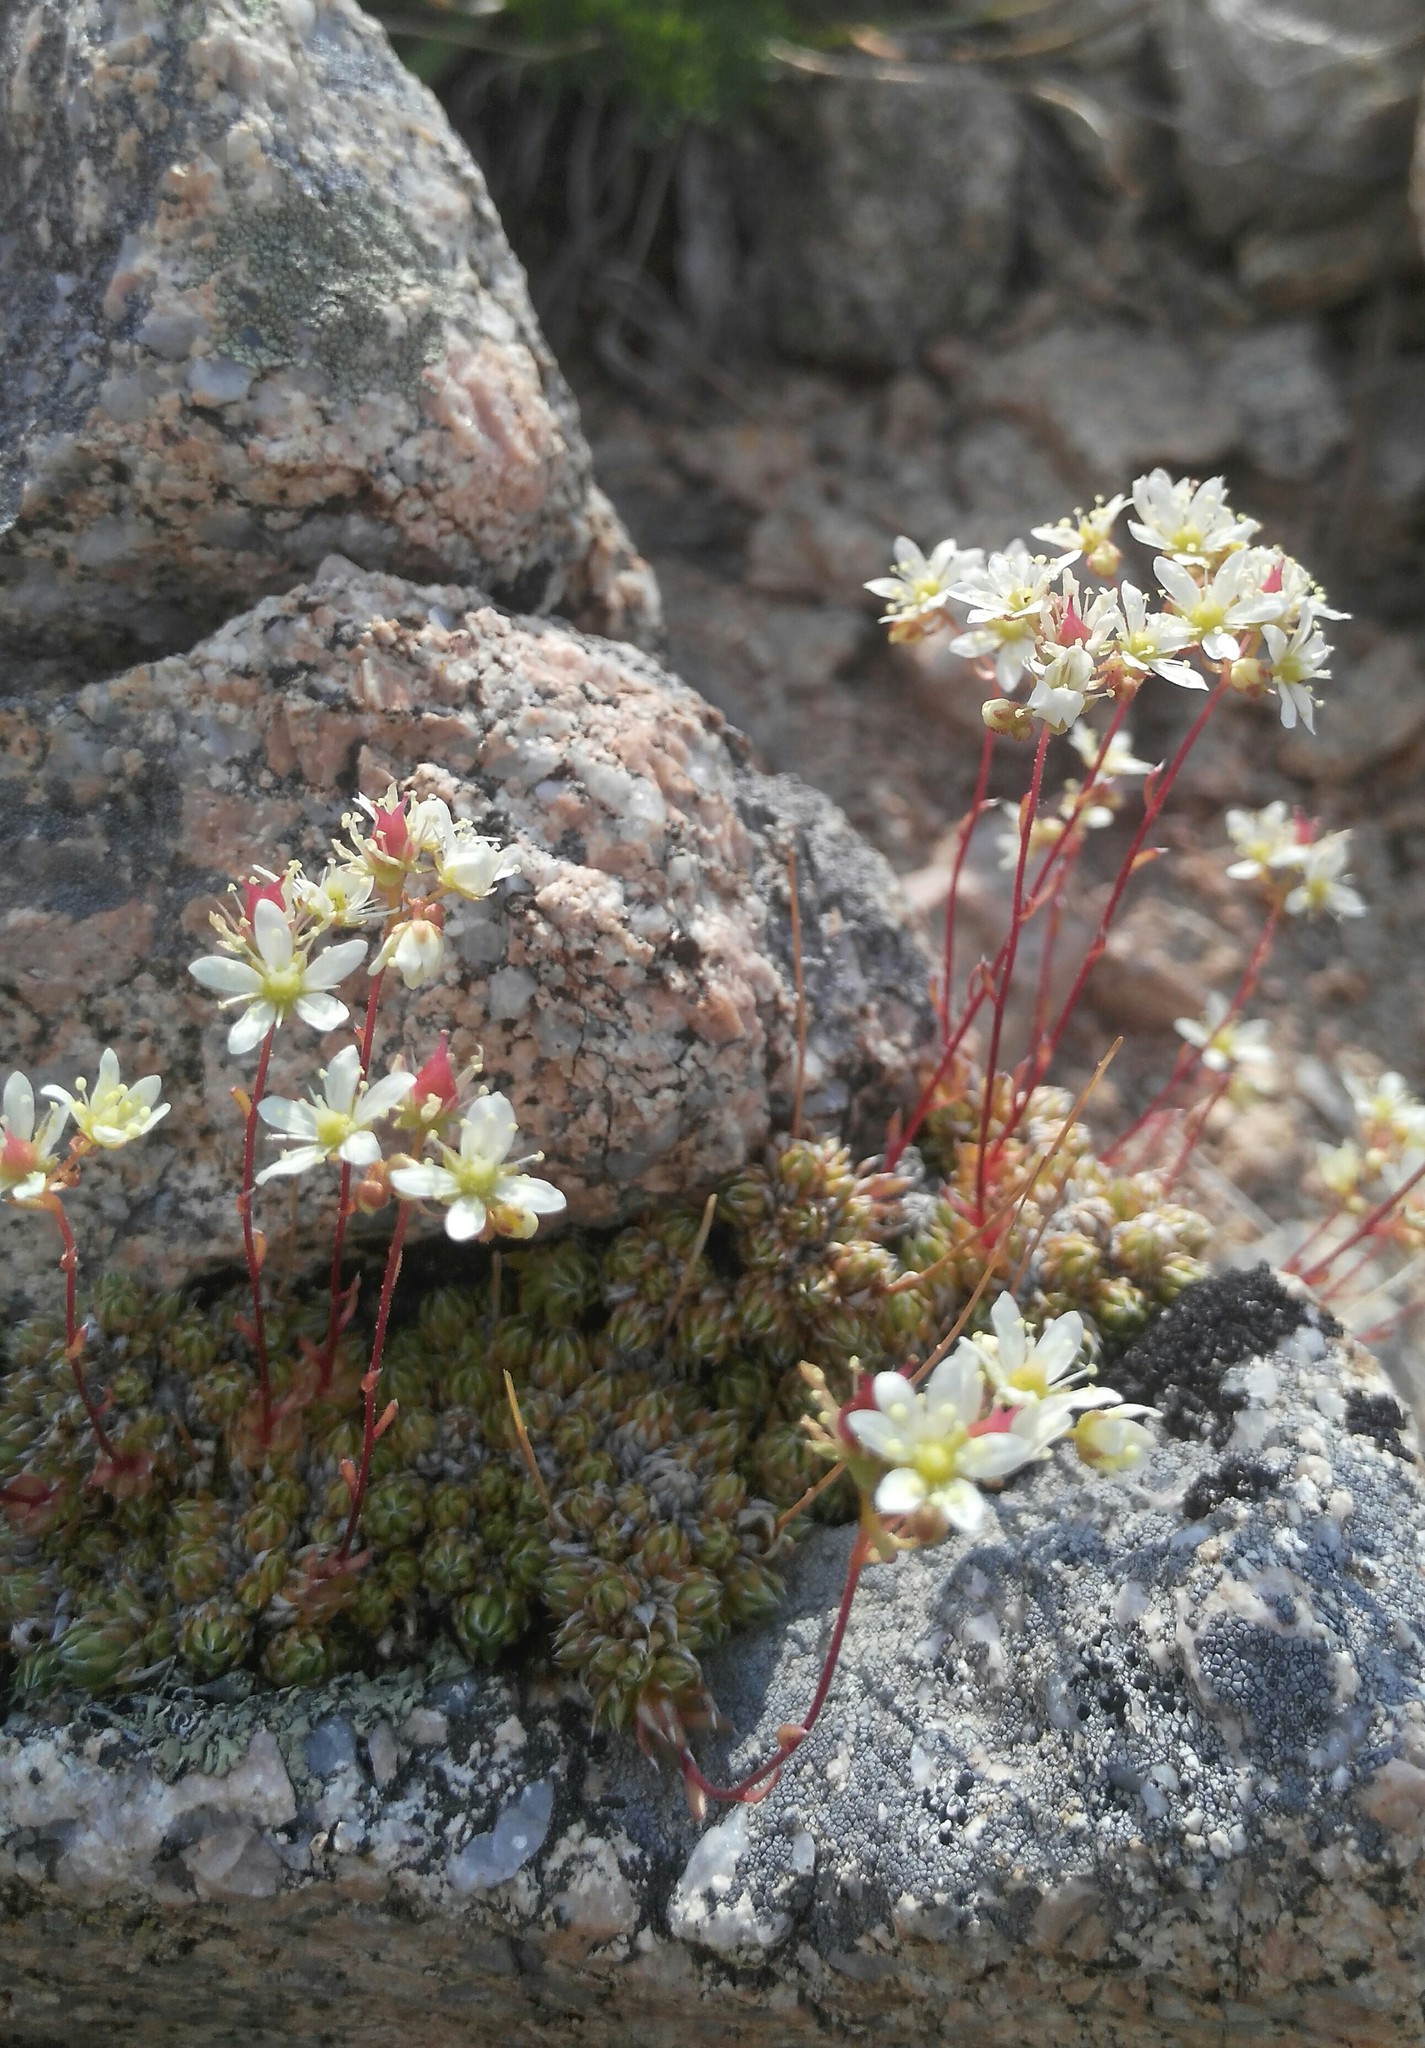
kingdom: Plantae
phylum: Tracheophyta
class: Magnoliopsida
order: Saxifragales
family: Saxifragaceae
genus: Saxifraga
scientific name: Saxifraga stelleriana
